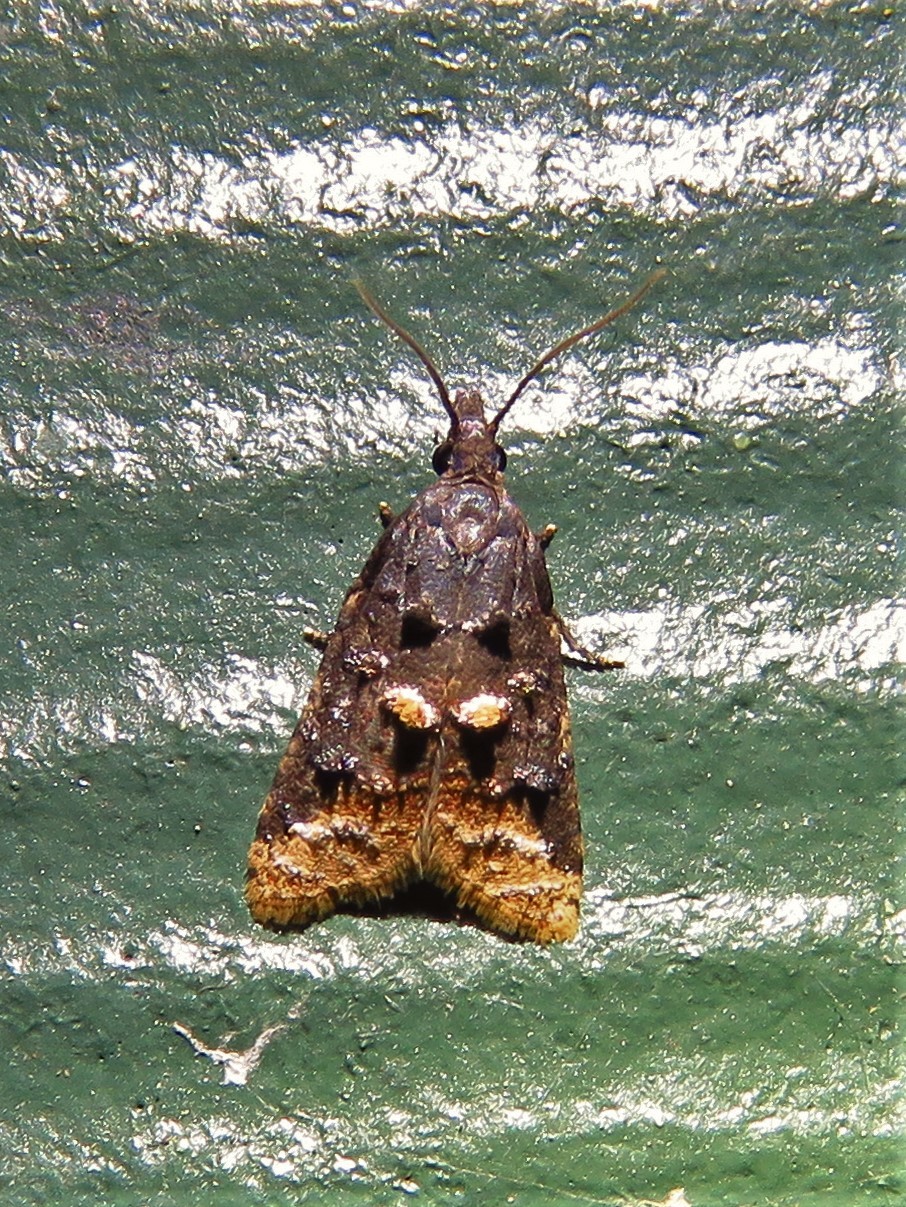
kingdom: Animalia
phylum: Arthropoda
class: Insecta
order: Lepidoptera
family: Tortricidae
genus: Platynota
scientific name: Platynota flavedana
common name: Black-shaded platynota moth
